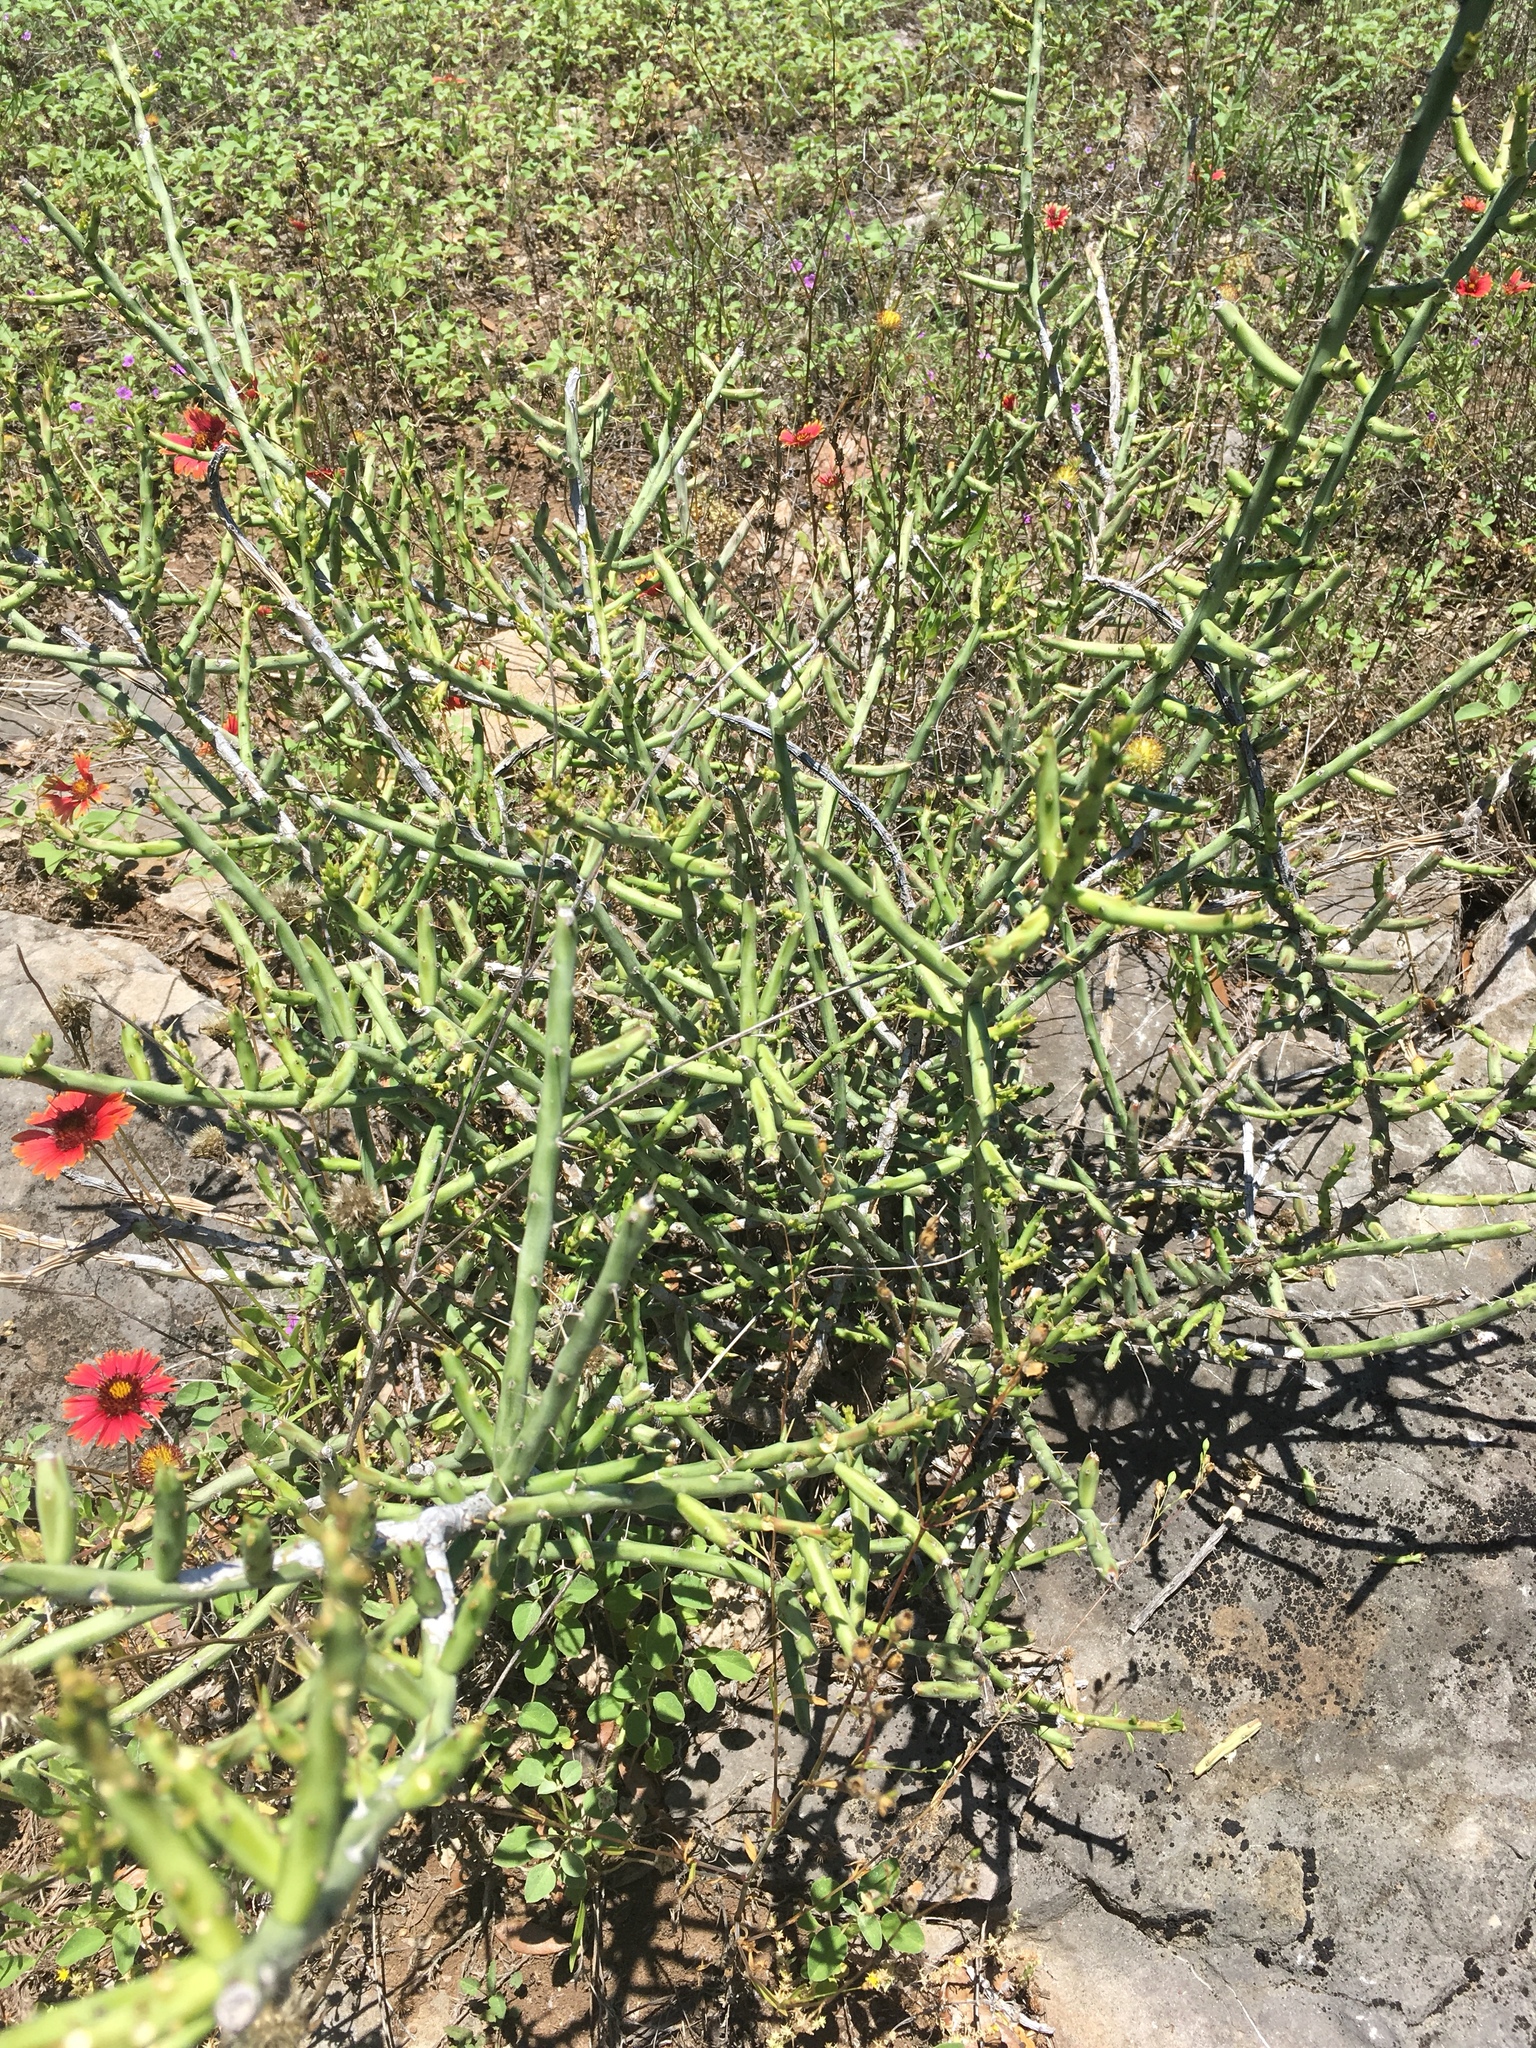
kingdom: Plantae
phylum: Tracheophyta
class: Magnoliopsida
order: Caryophyllales
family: Cactaceae
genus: Cylindropuntia
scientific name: Cylindropuntia leptocaulis
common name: Christmas cactus
